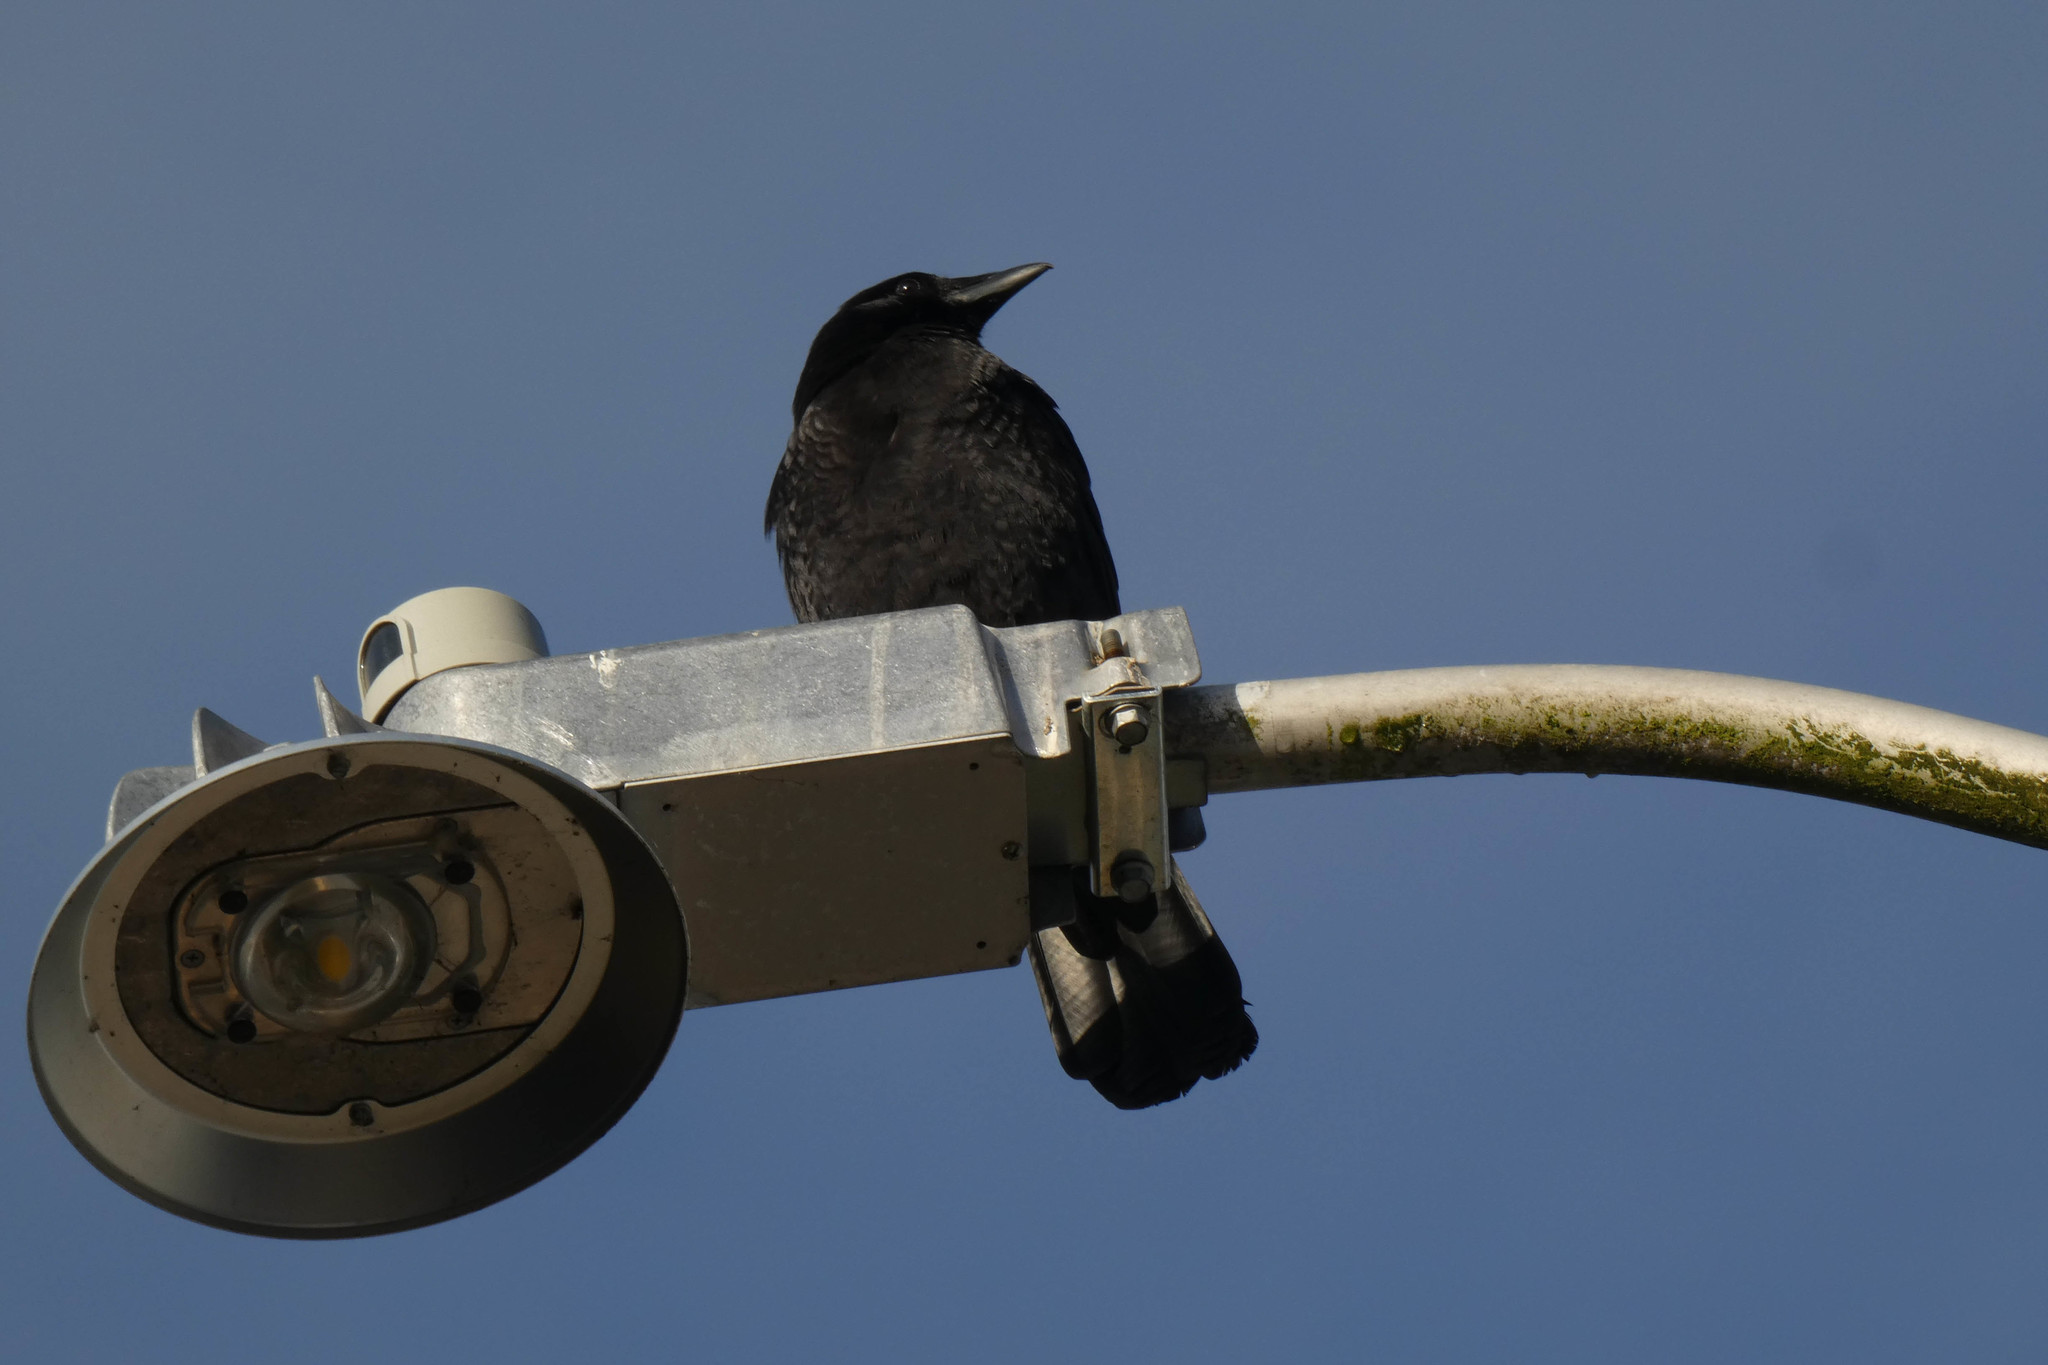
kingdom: Animalia
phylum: Chordata
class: Aves
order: Passeriformes
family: Corvidae
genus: Corvus
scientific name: Corvus brachyrhynchos
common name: American crow
